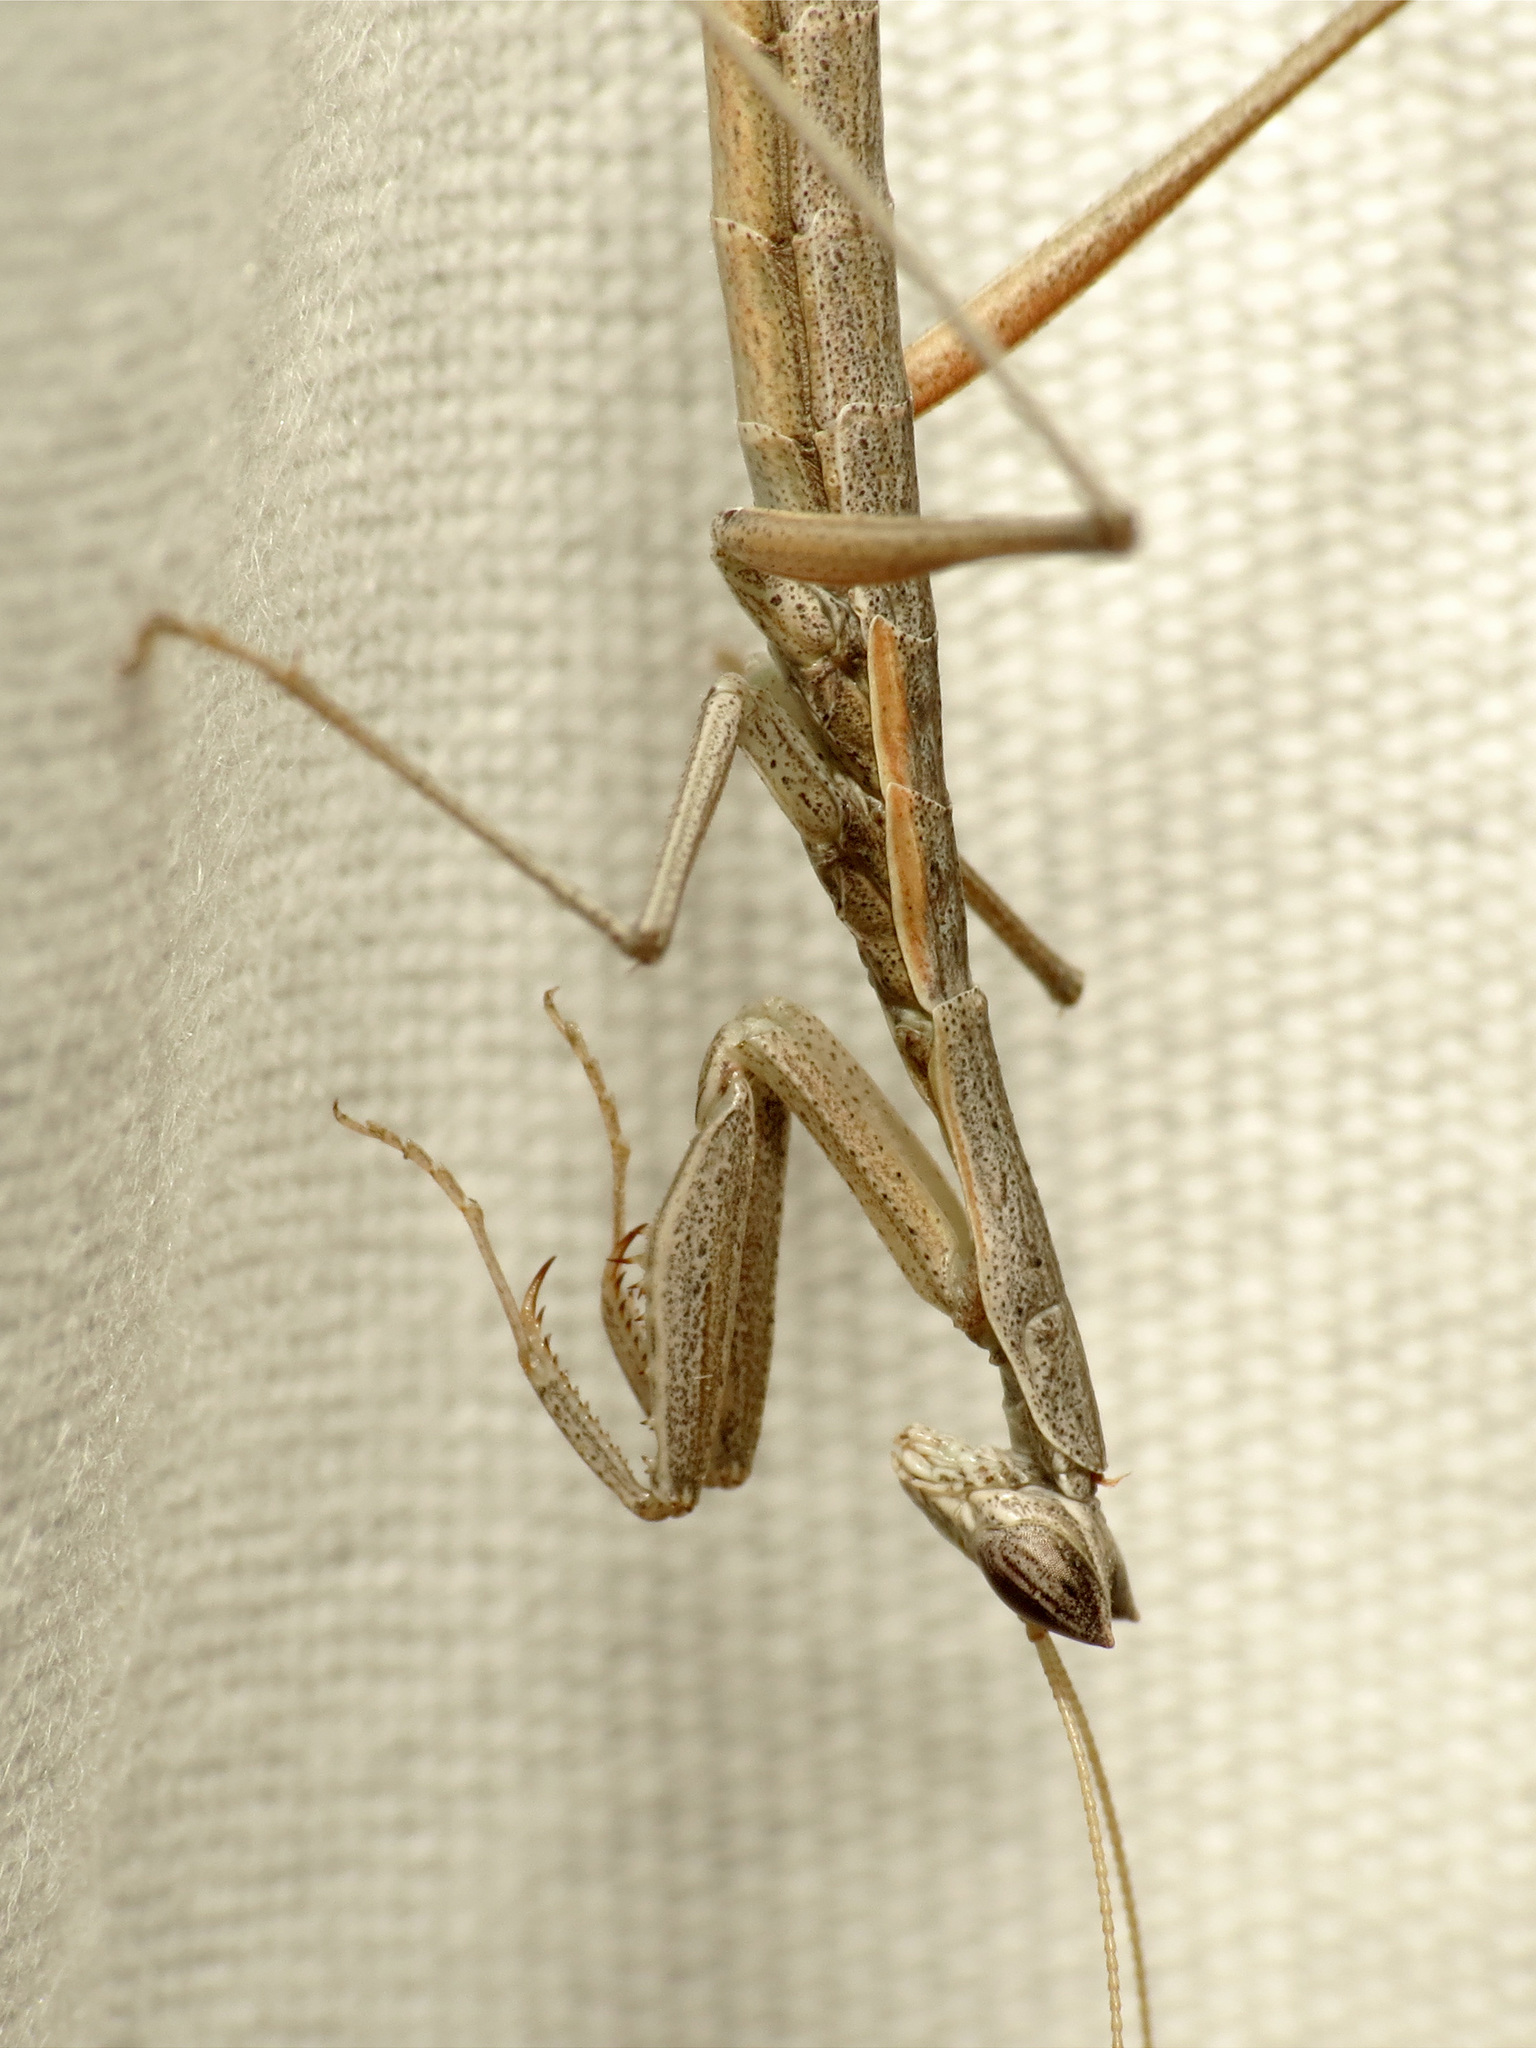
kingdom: Animalia
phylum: Arthropoda
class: Insecta
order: Mantodea
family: Amelidae
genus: Yersiniops
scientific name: Yersiniops solitarius
